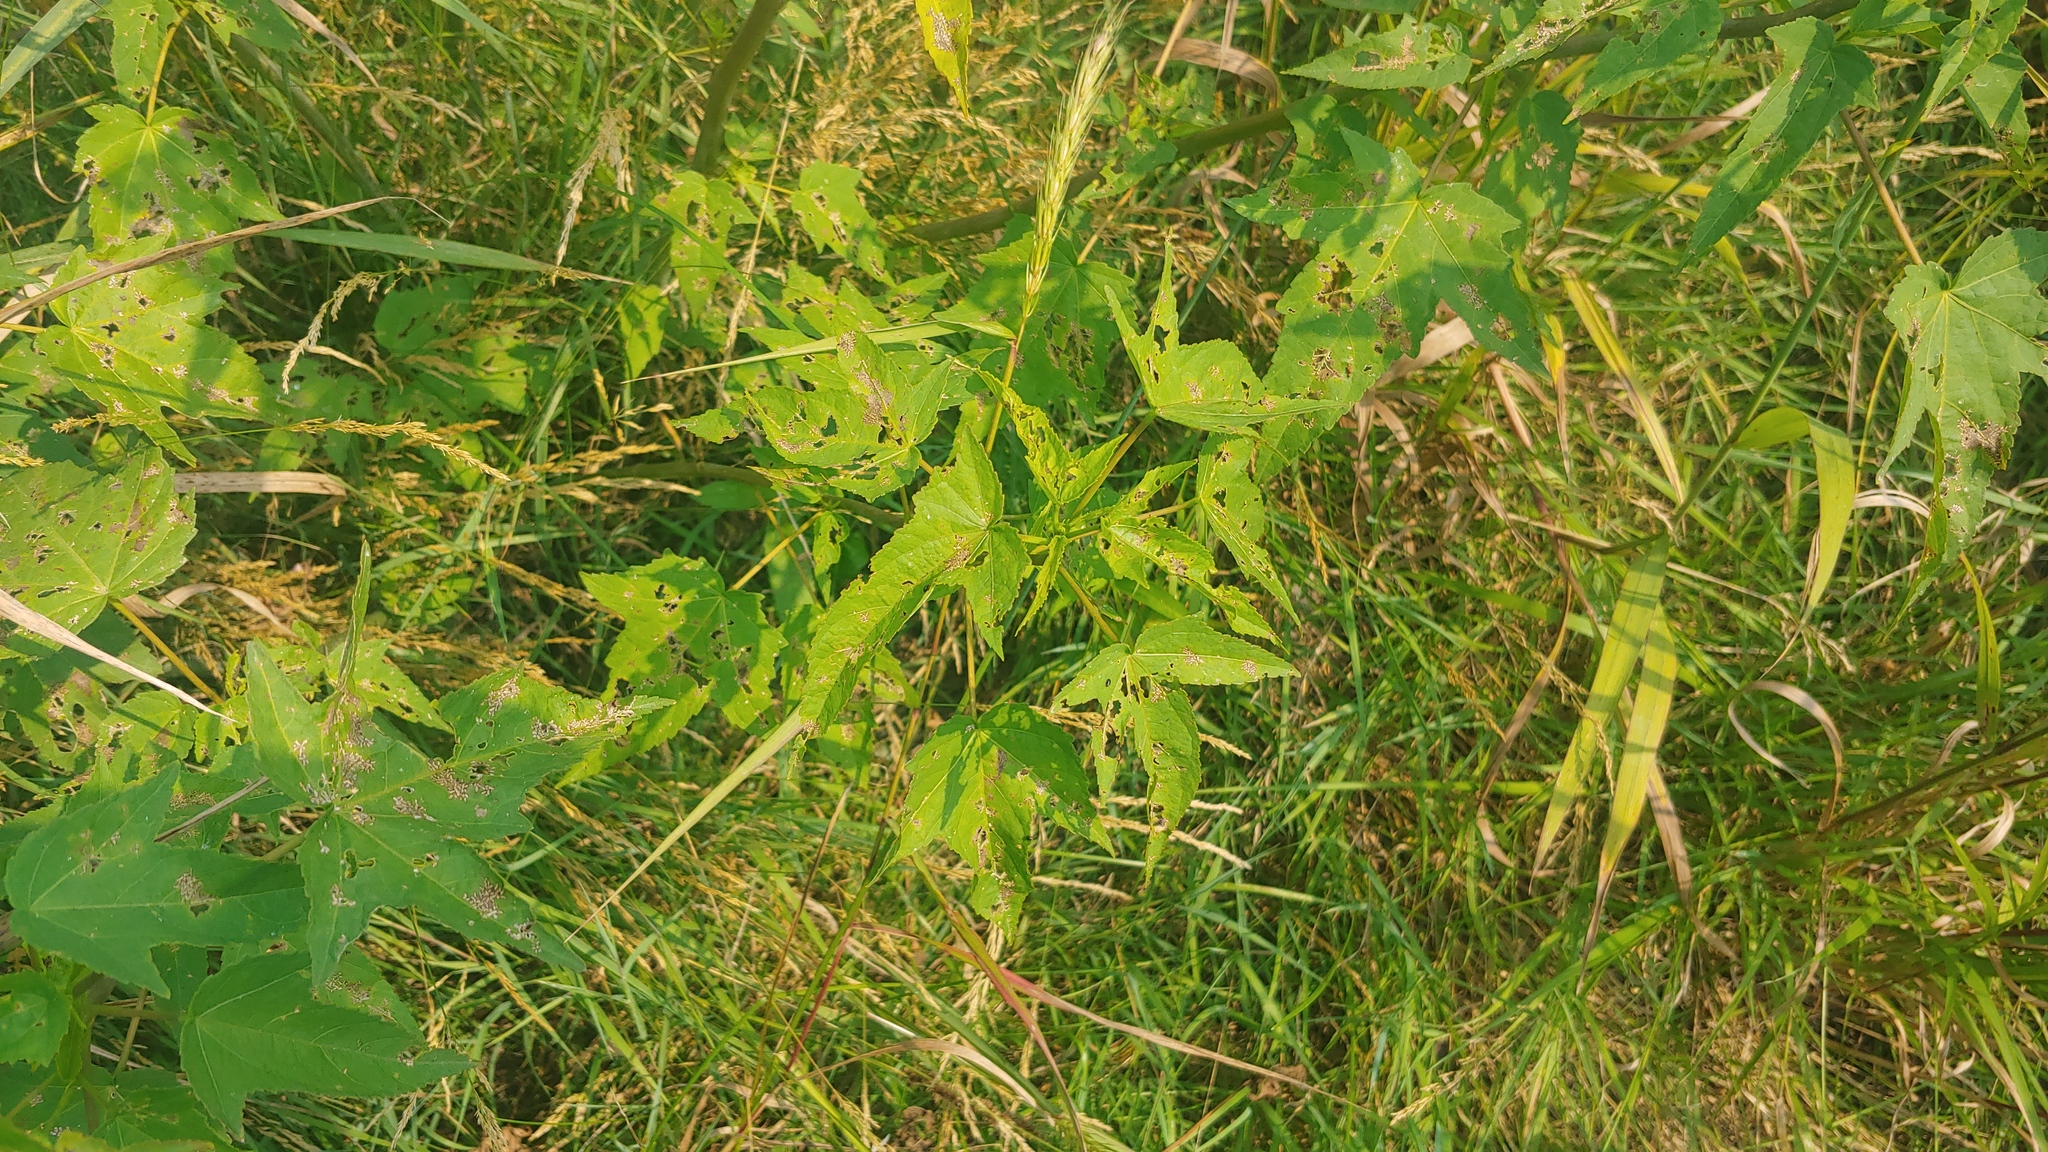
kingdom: Plantae
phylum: Tracheophyta
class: Magnoliopsida
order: Malvales
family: Malvaceae
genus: Hibiscus
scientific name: Hibiscus laevis
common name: Scarlet rose-mallow
